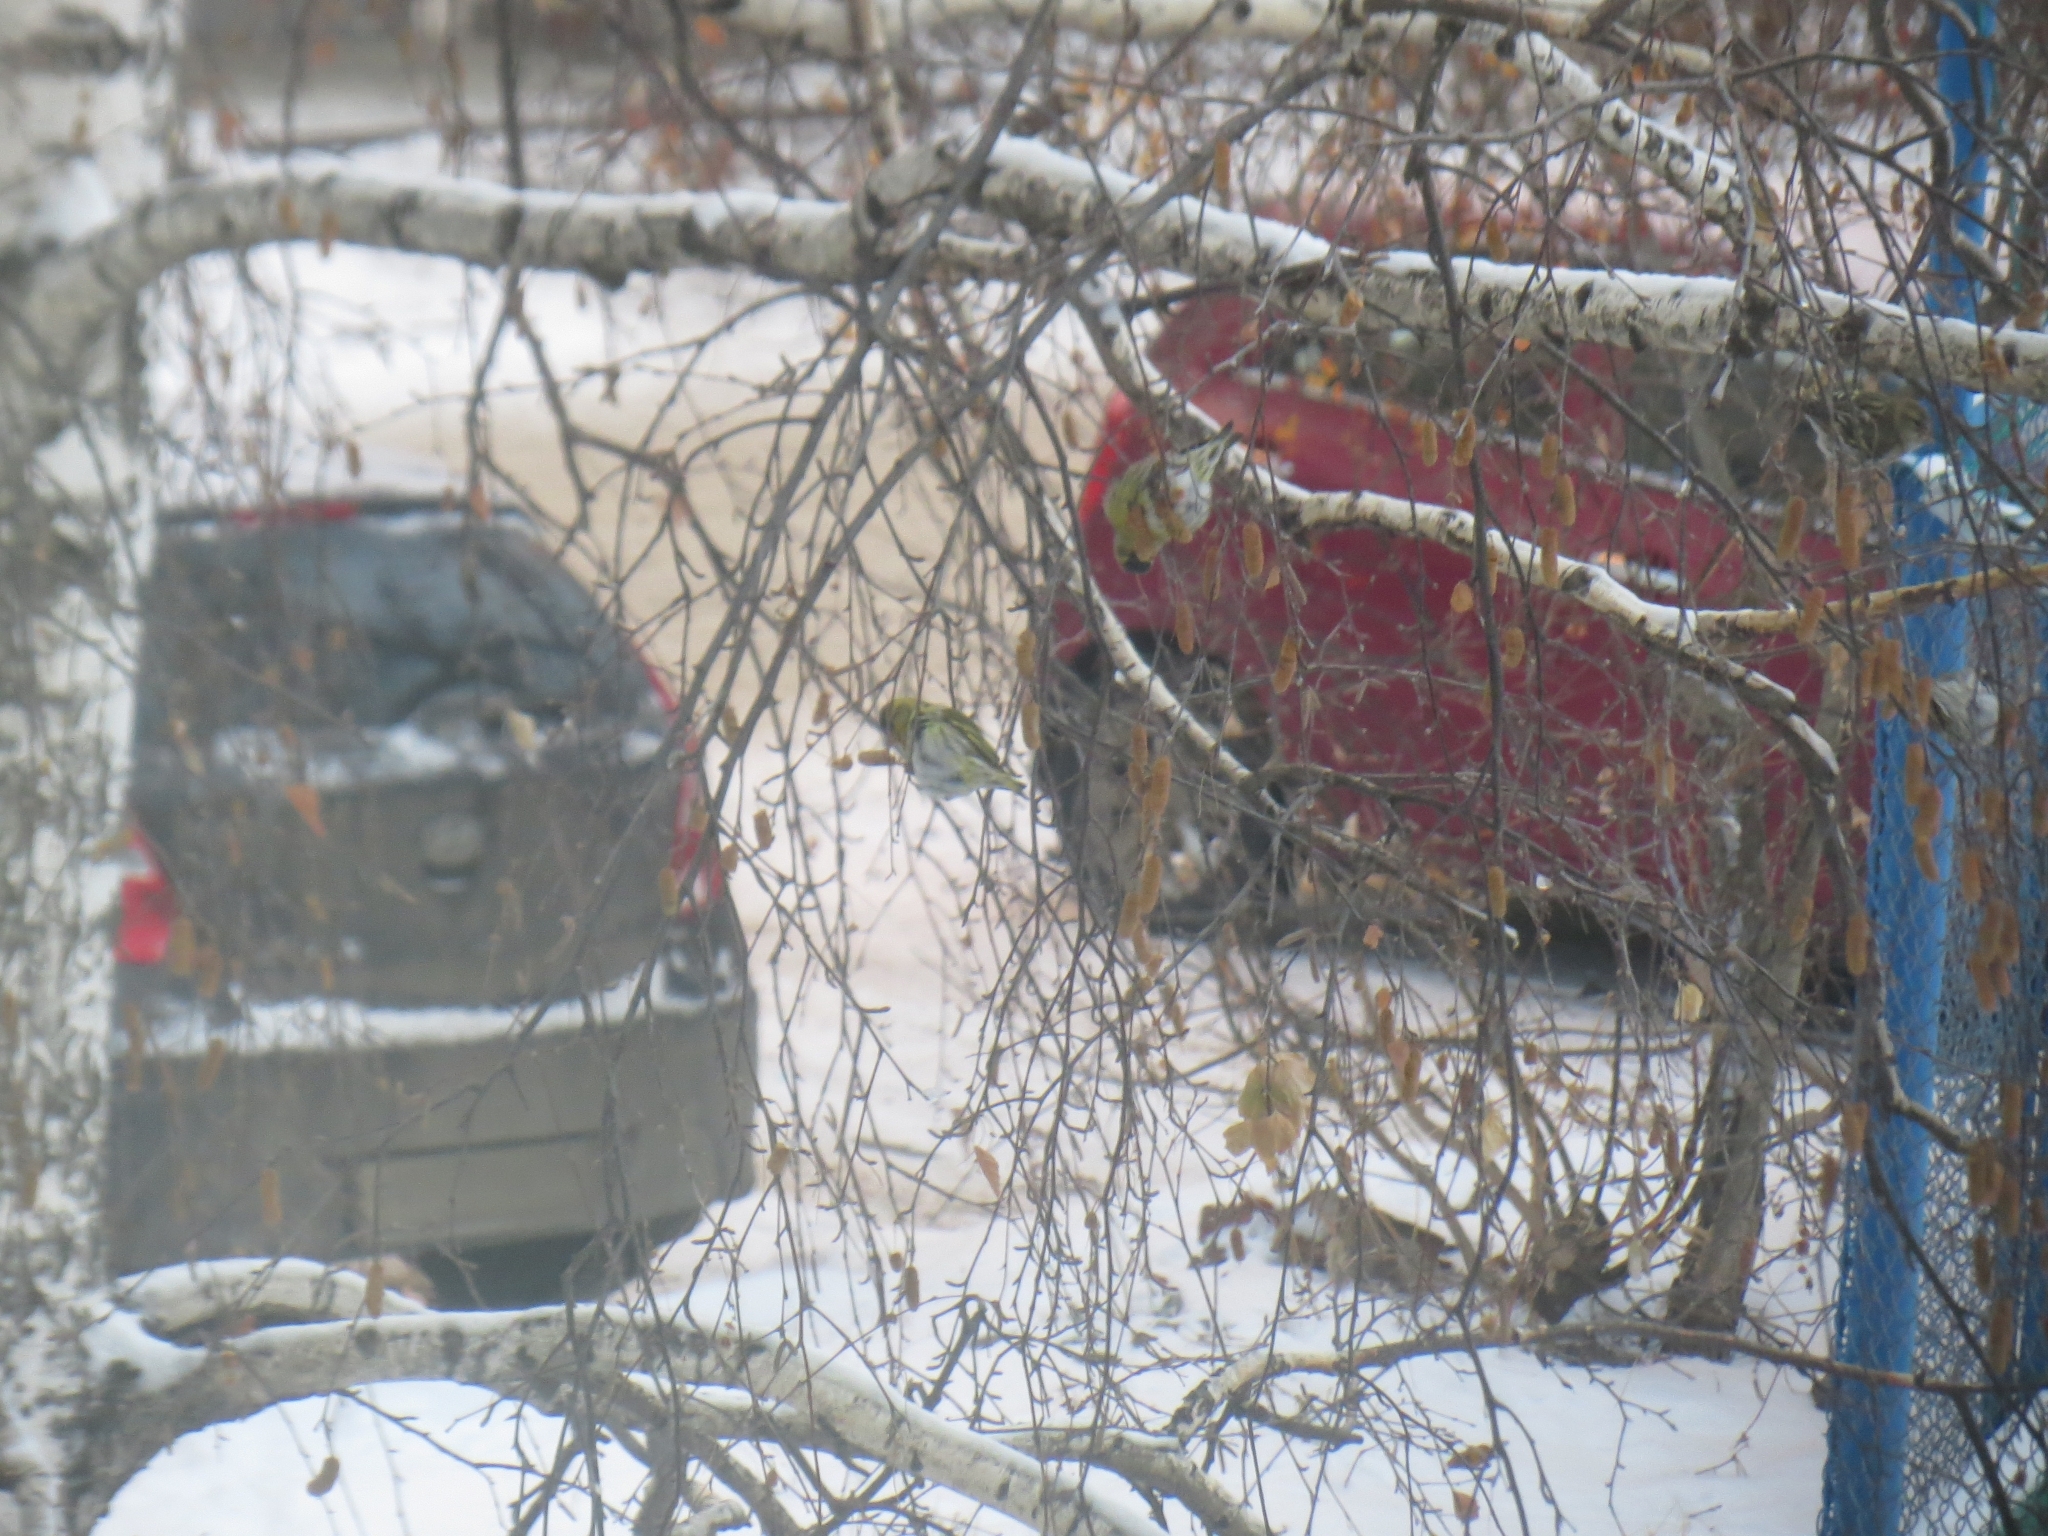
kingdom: Animalia
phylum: Chordata
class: Aves
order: Passeriformes
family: Fringillidae
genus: Spinus
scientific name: Spinus spinus
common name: Eurasian siskin
